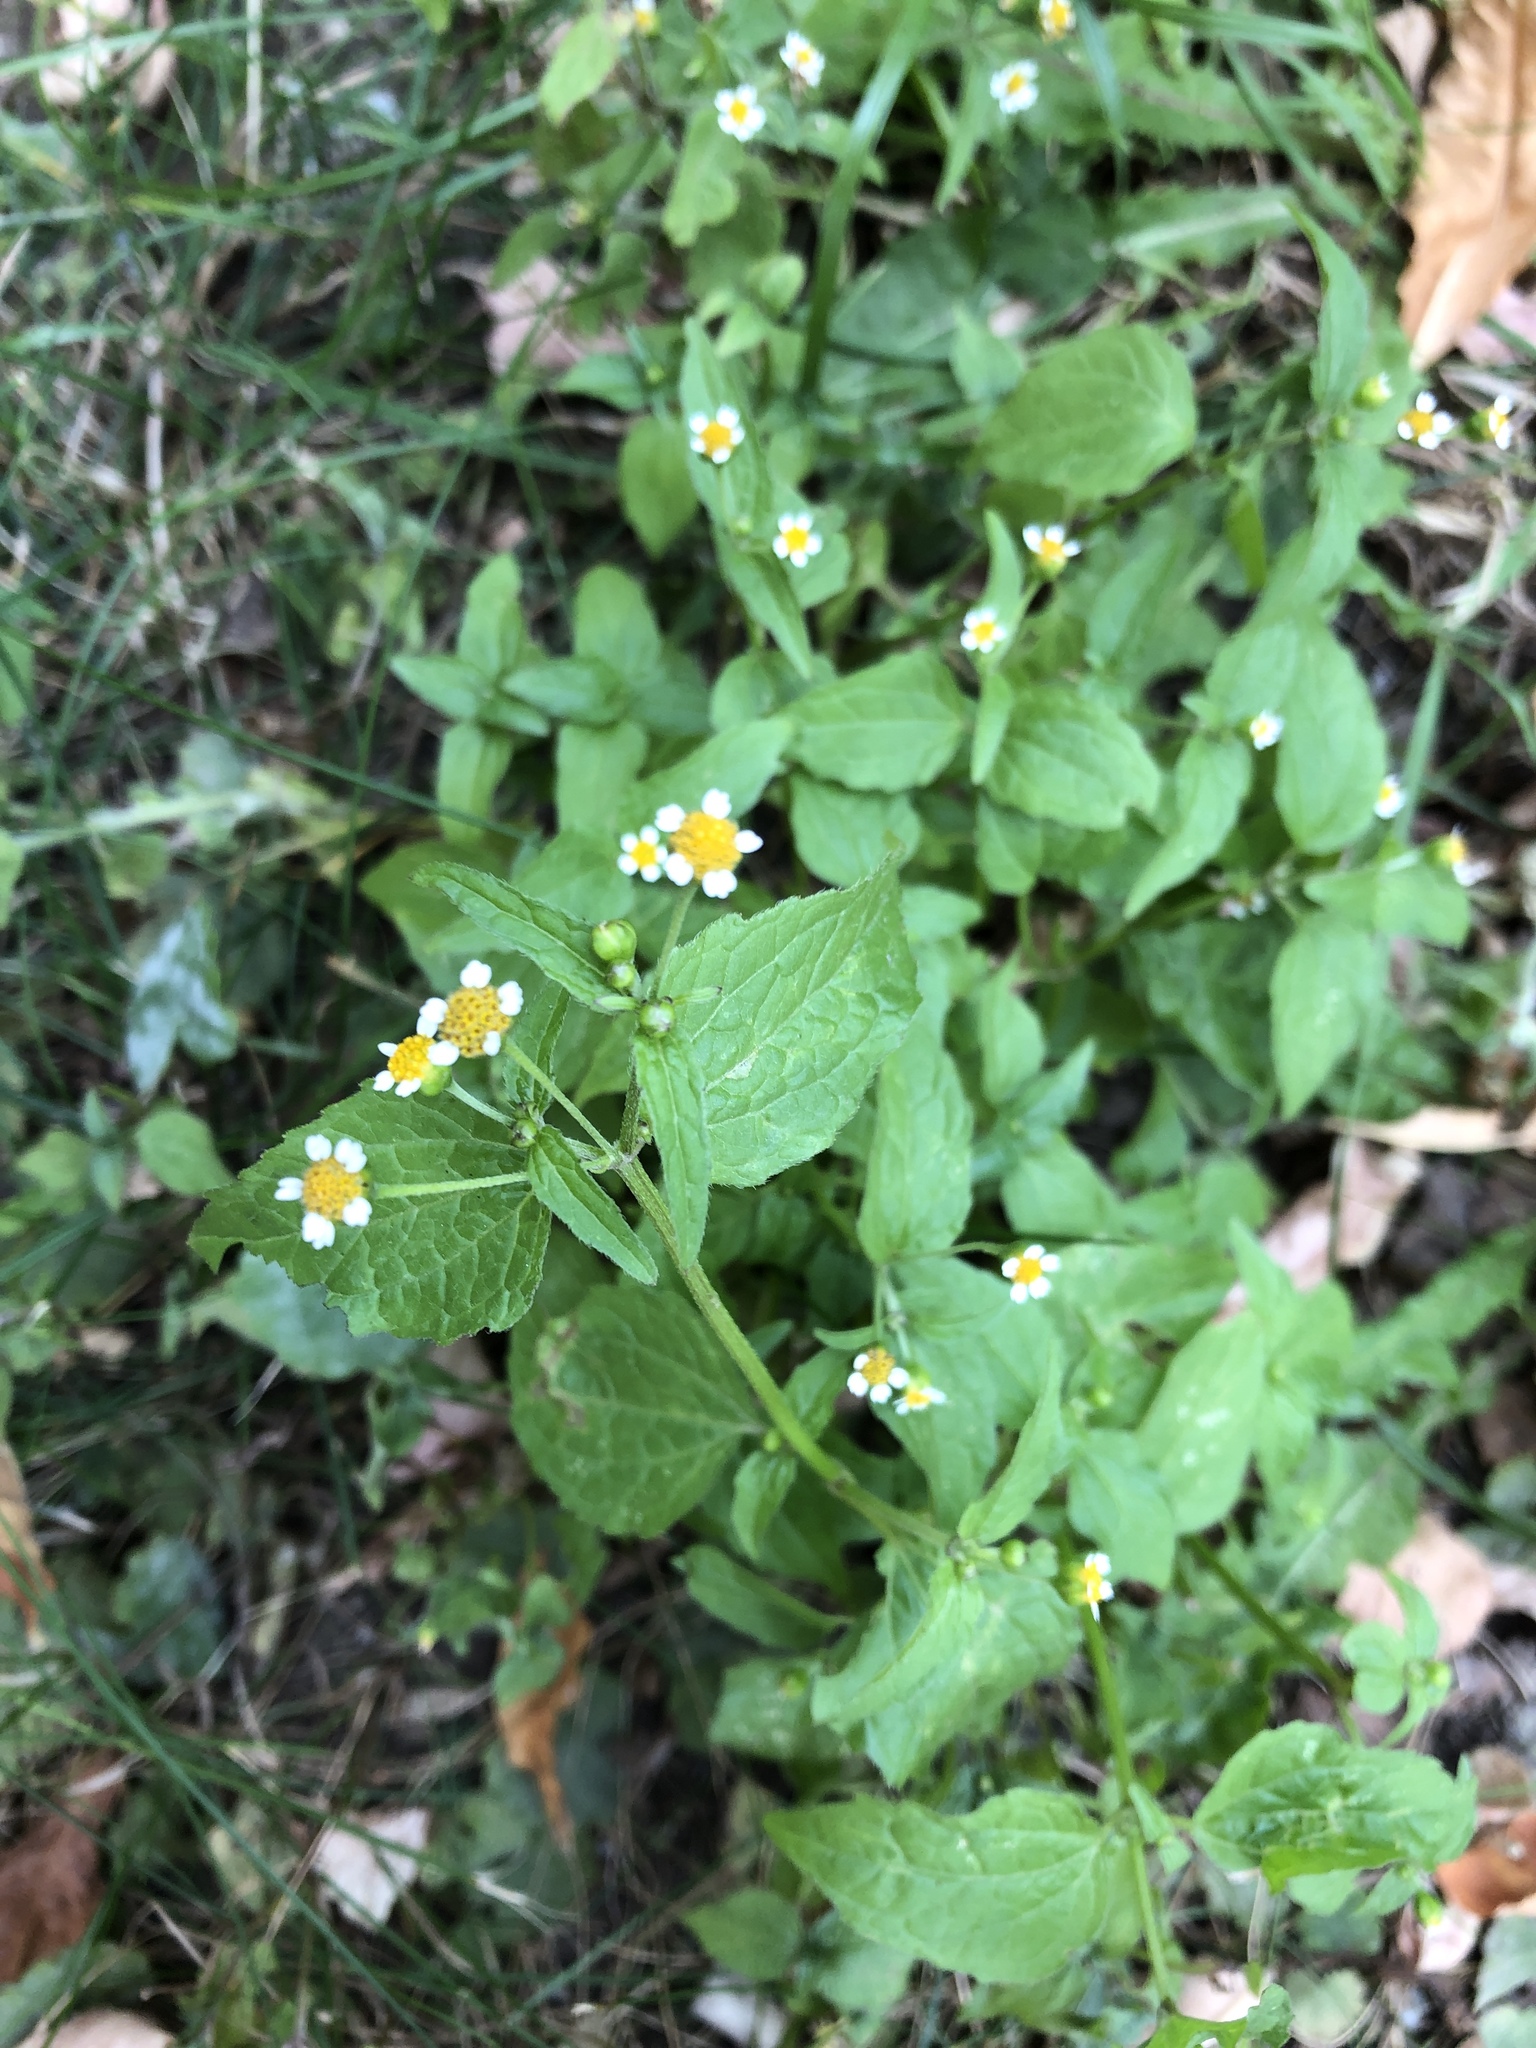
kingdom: Plantae
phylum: Tracheophyta
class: Magnoliopsida
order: Asterales
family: Asteraceae
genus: Galinsoga
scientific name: Galinsoga parviflora
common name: Gallant soldier
